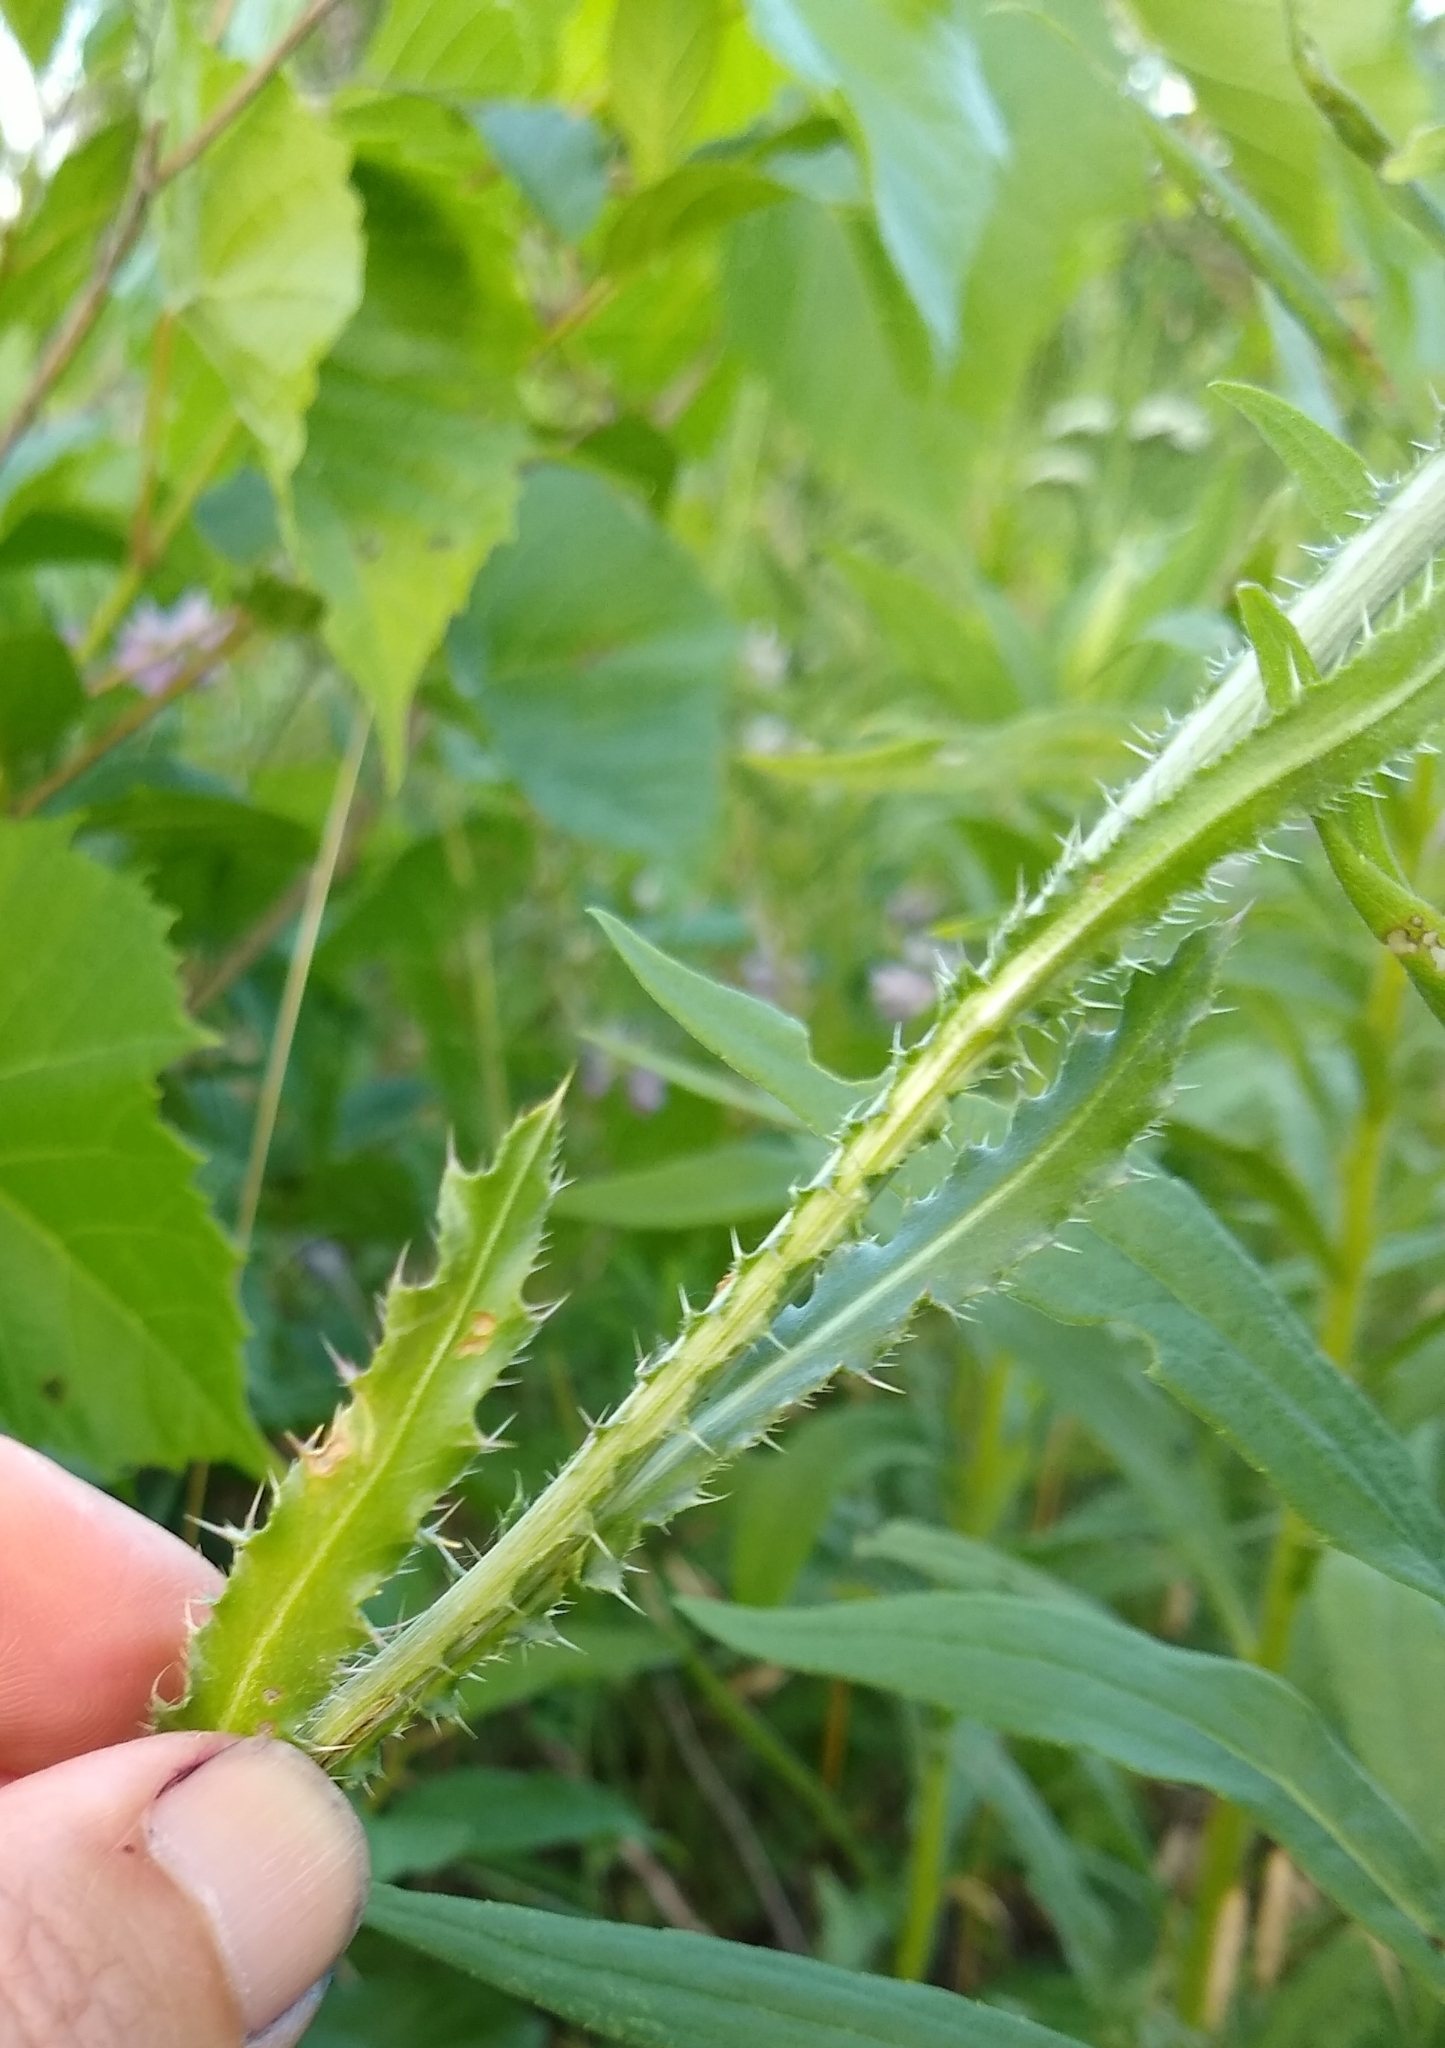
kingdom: Plantae
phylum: Tracheophyta
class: Magnoliopsida
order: Asterales
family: Asteraceae
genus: Carduus
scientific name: Carduus nutans
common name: Musk thistle
